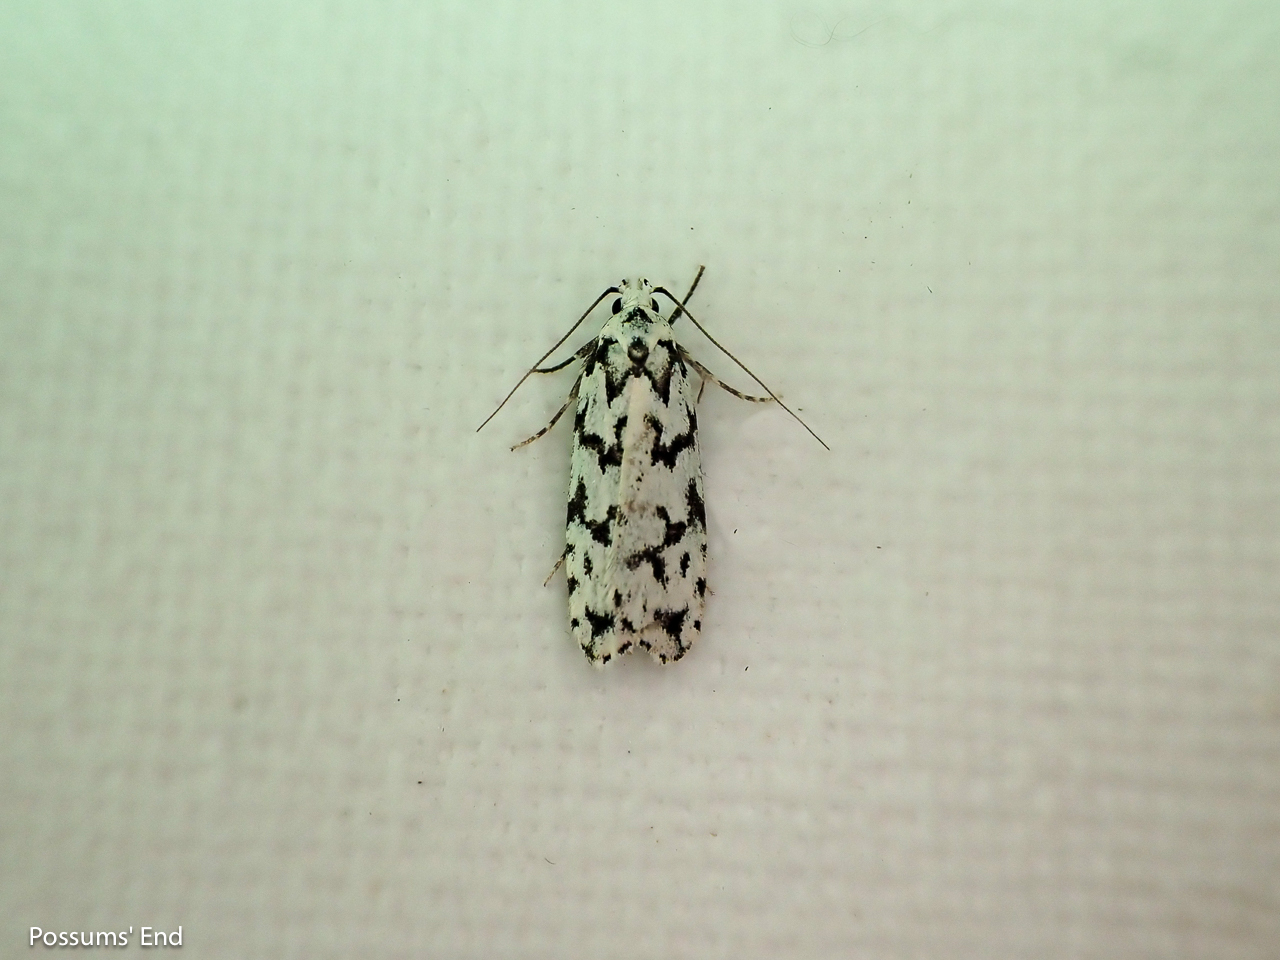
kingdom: Animalia
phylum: Arthropoda
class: Insecta
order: Lepidoptera
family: Oecophoridae
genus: Izatha
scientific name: Izatha katadiktya
